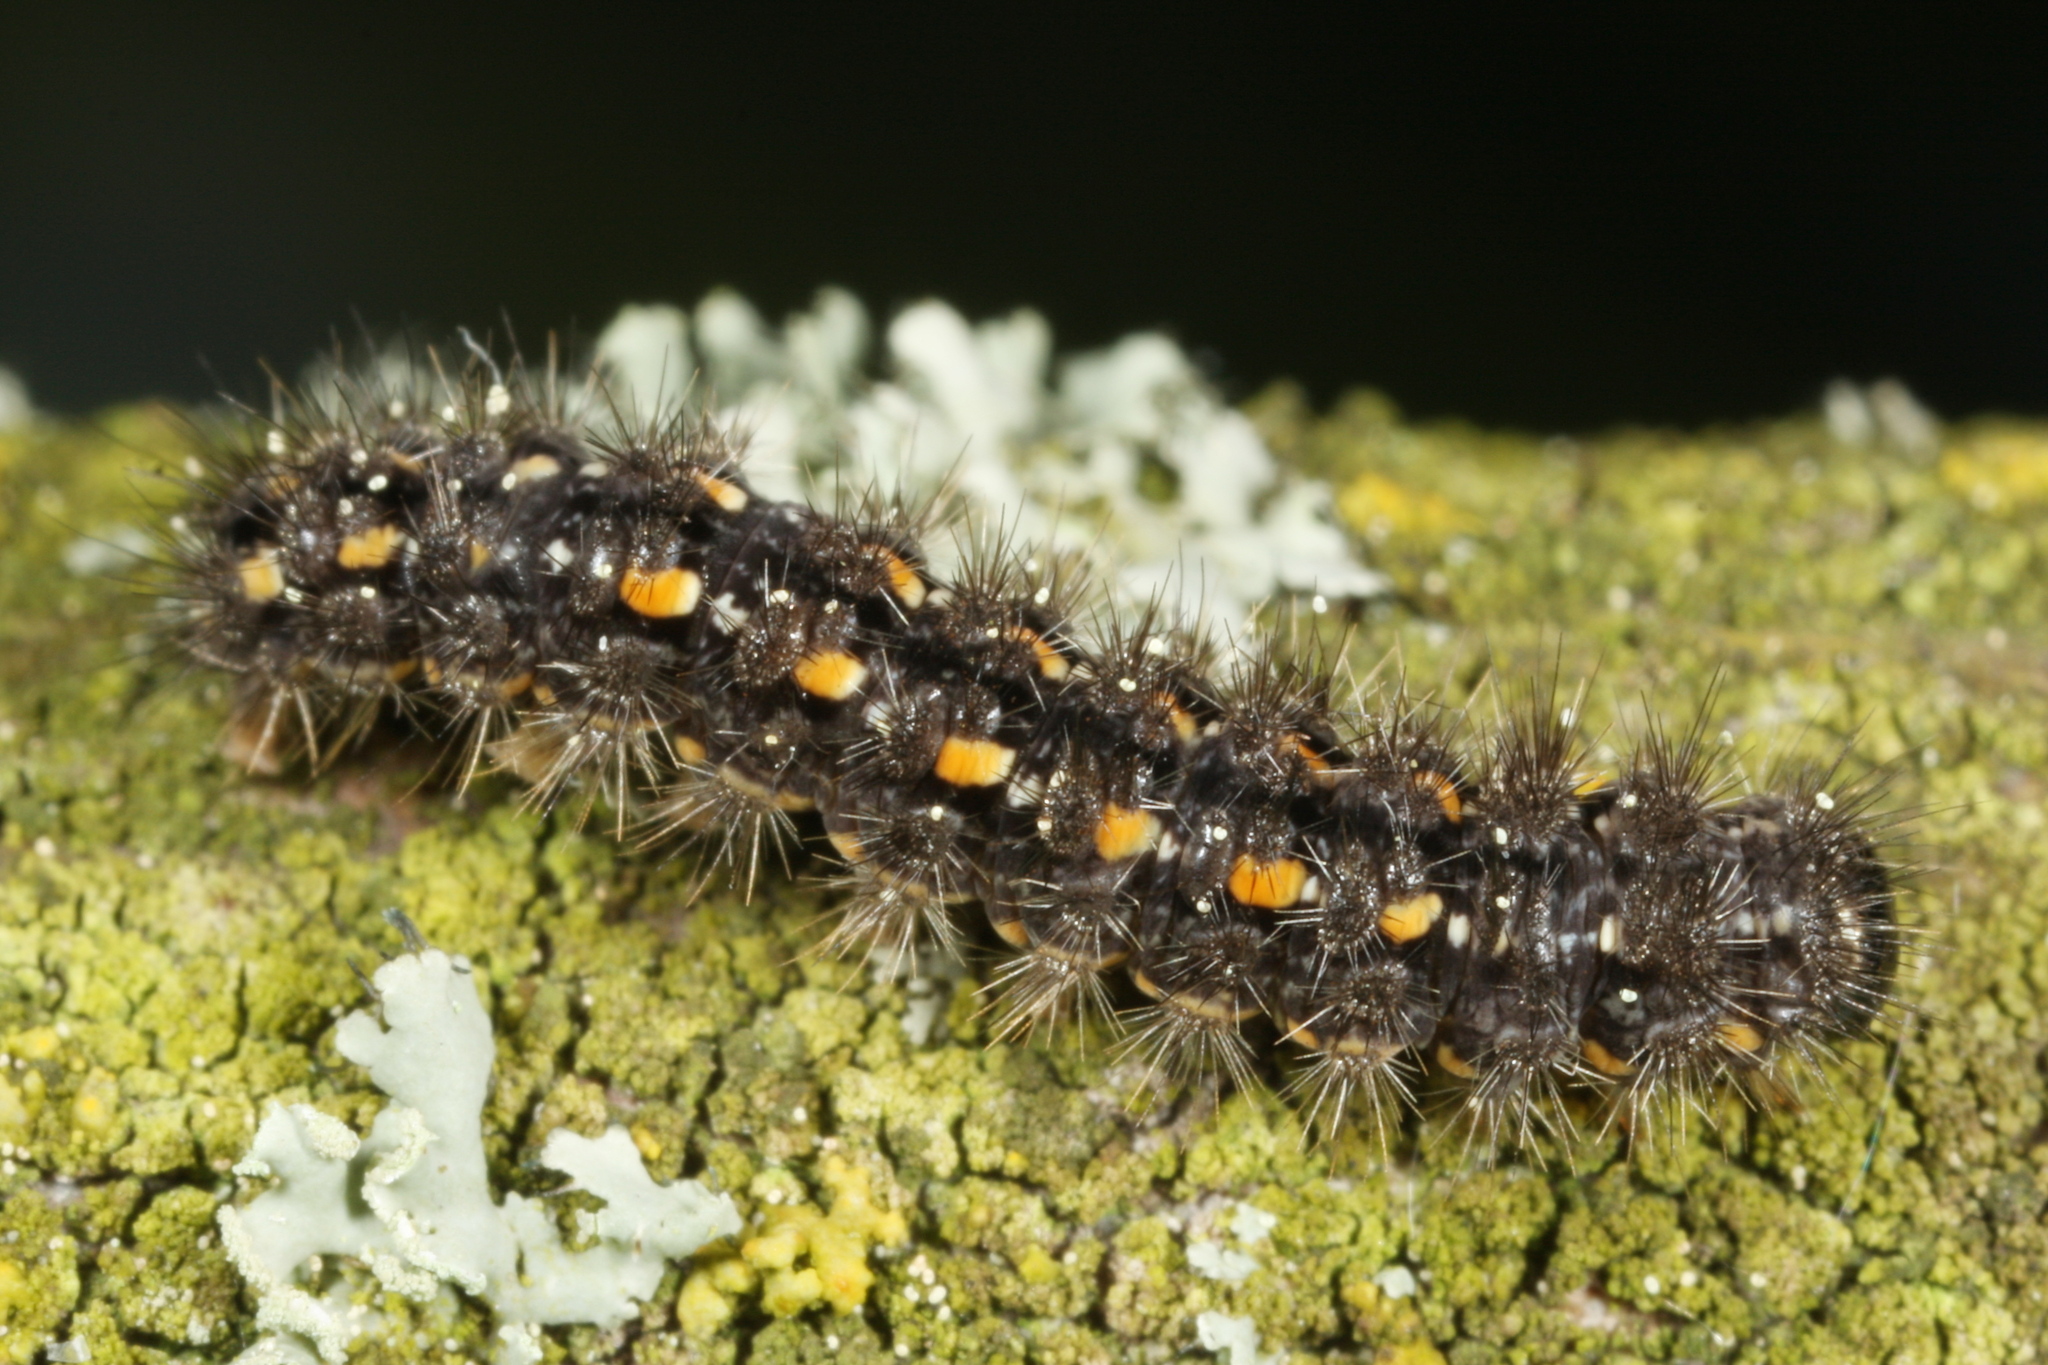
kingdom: Animalia
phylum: Arthropoda
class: Insecta
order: Lepidoptera
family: Erebidae
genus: Manulea
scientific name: Manulea complana
